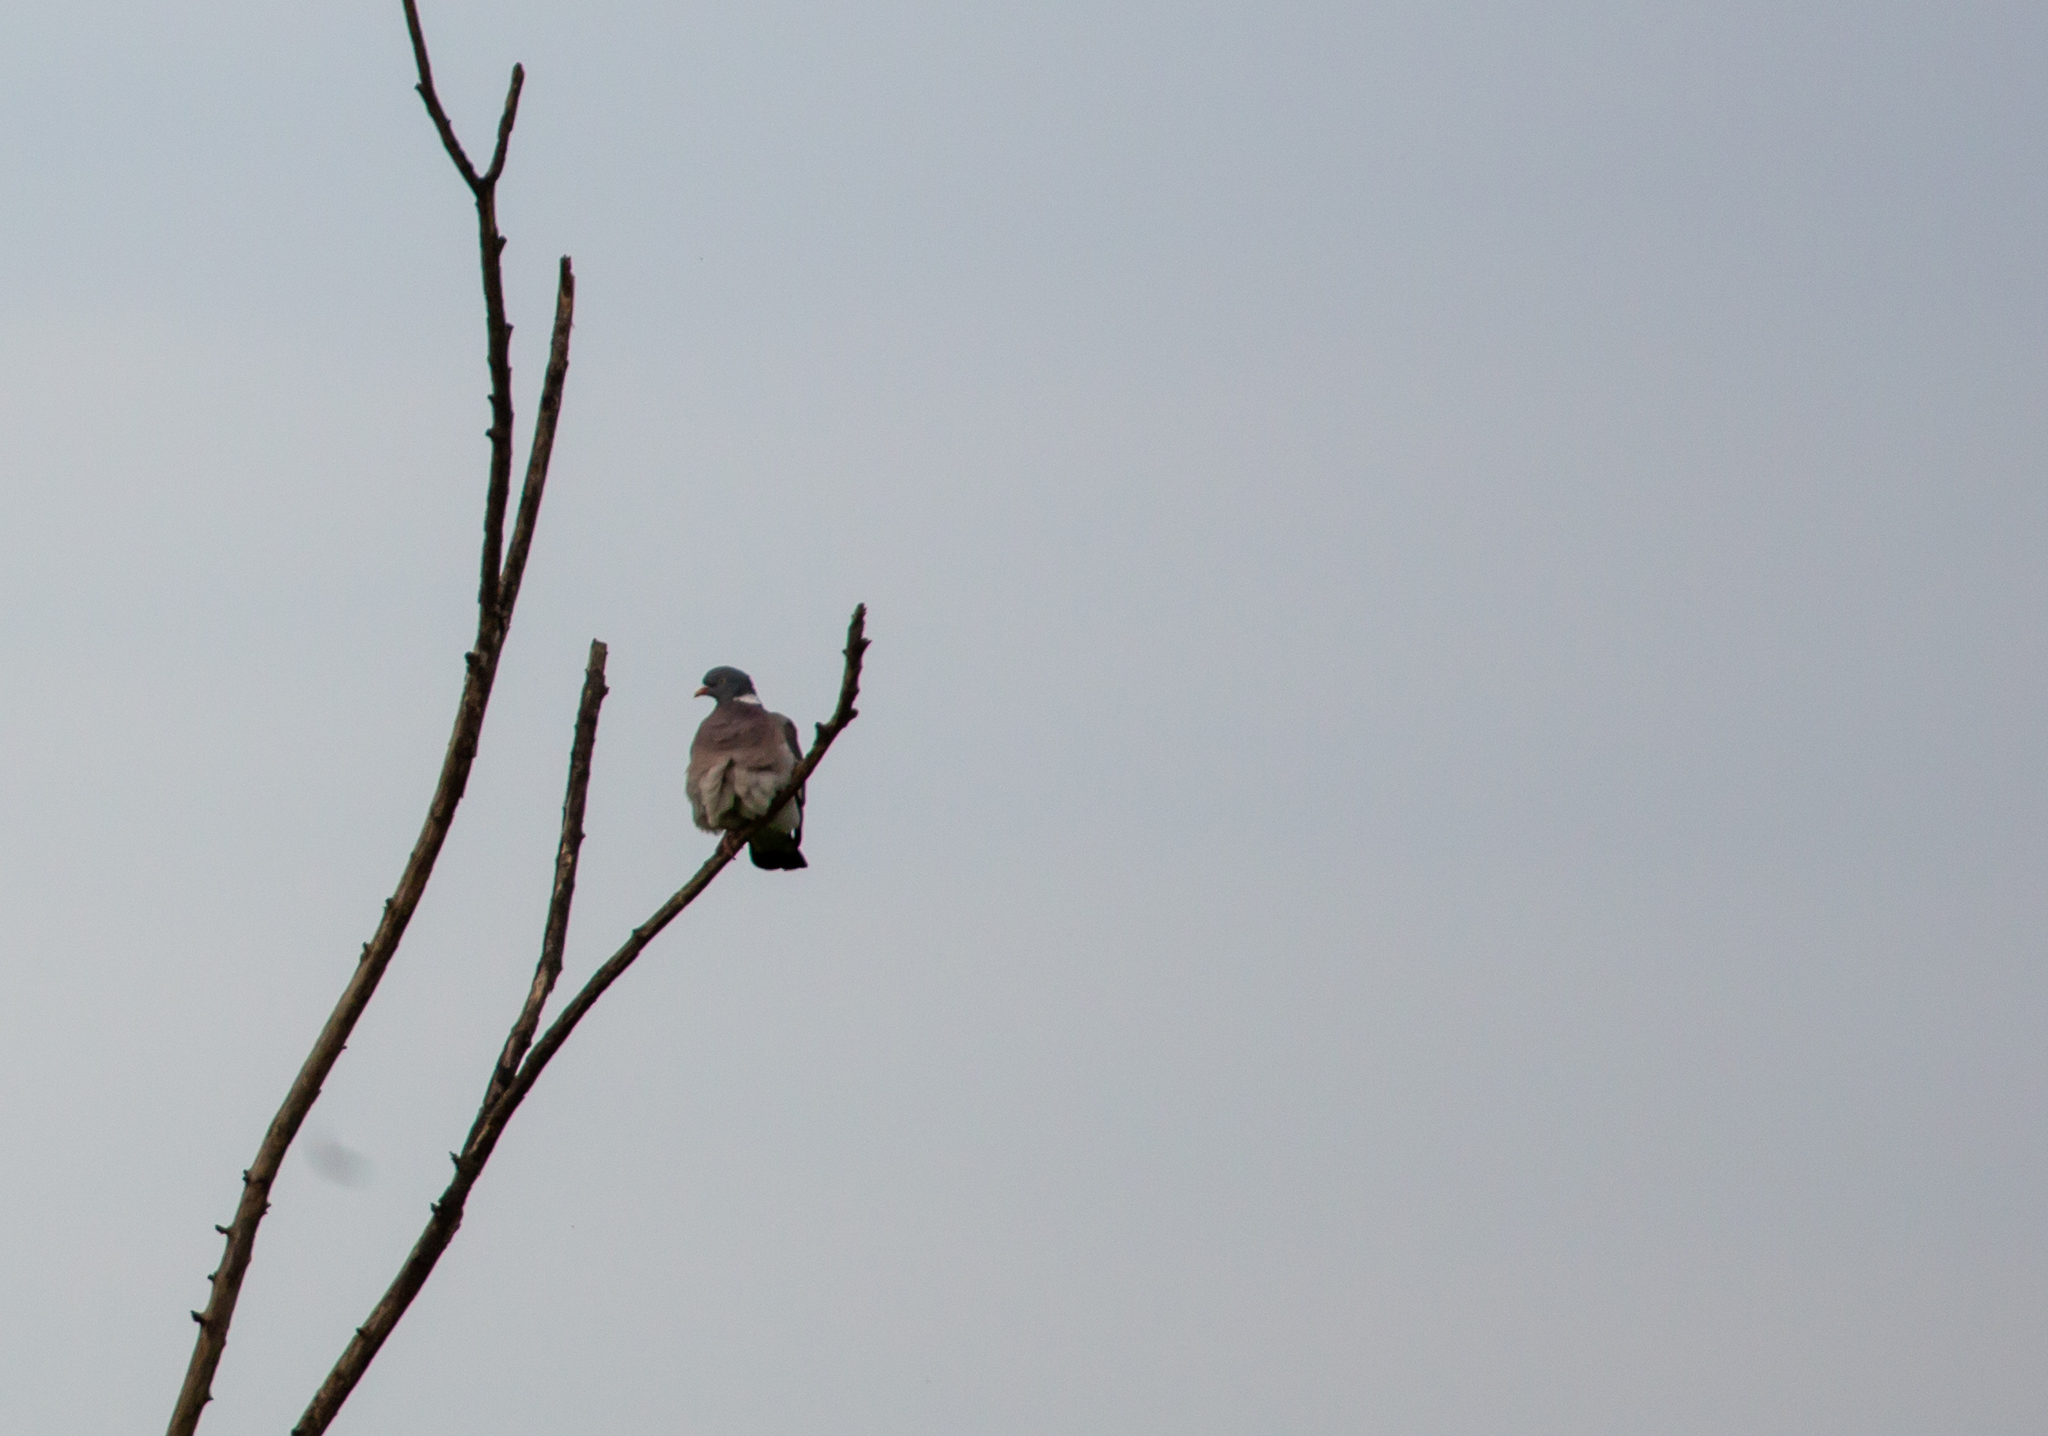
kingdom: Animalia
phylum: Chordata
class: Aves
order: Columbiformes
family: Columbidae
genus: Columba
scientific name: Columba palumbus
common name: Common wood pigeon
